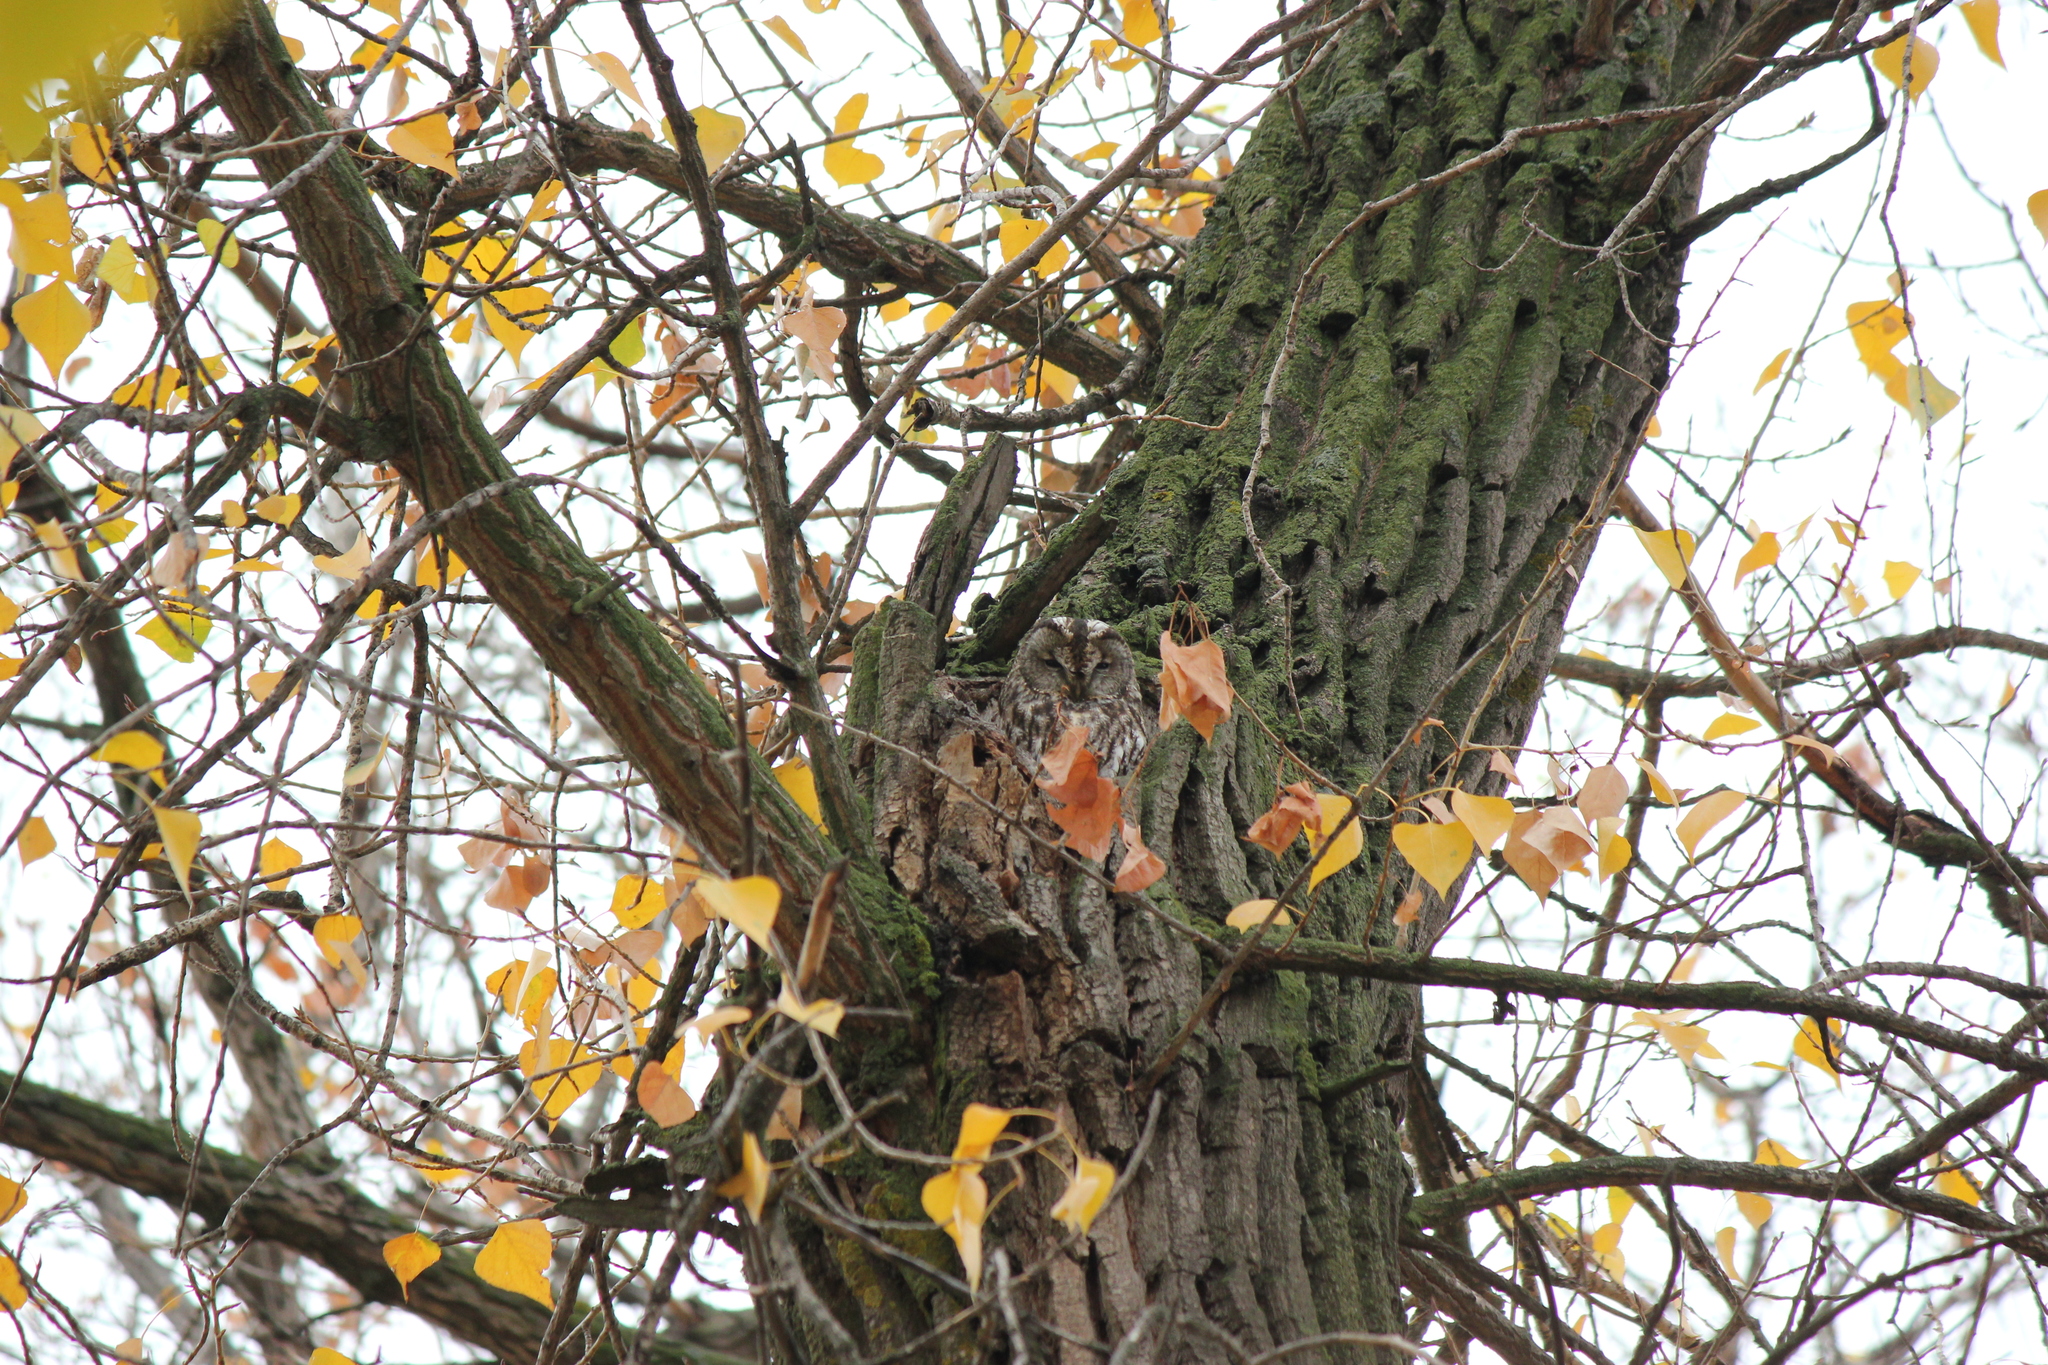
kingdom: Animalia
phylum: Chordata
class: Aves
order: Strigiformes
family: Strigidae
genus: Strix
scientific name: Strix aluco
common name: Tawny owl
